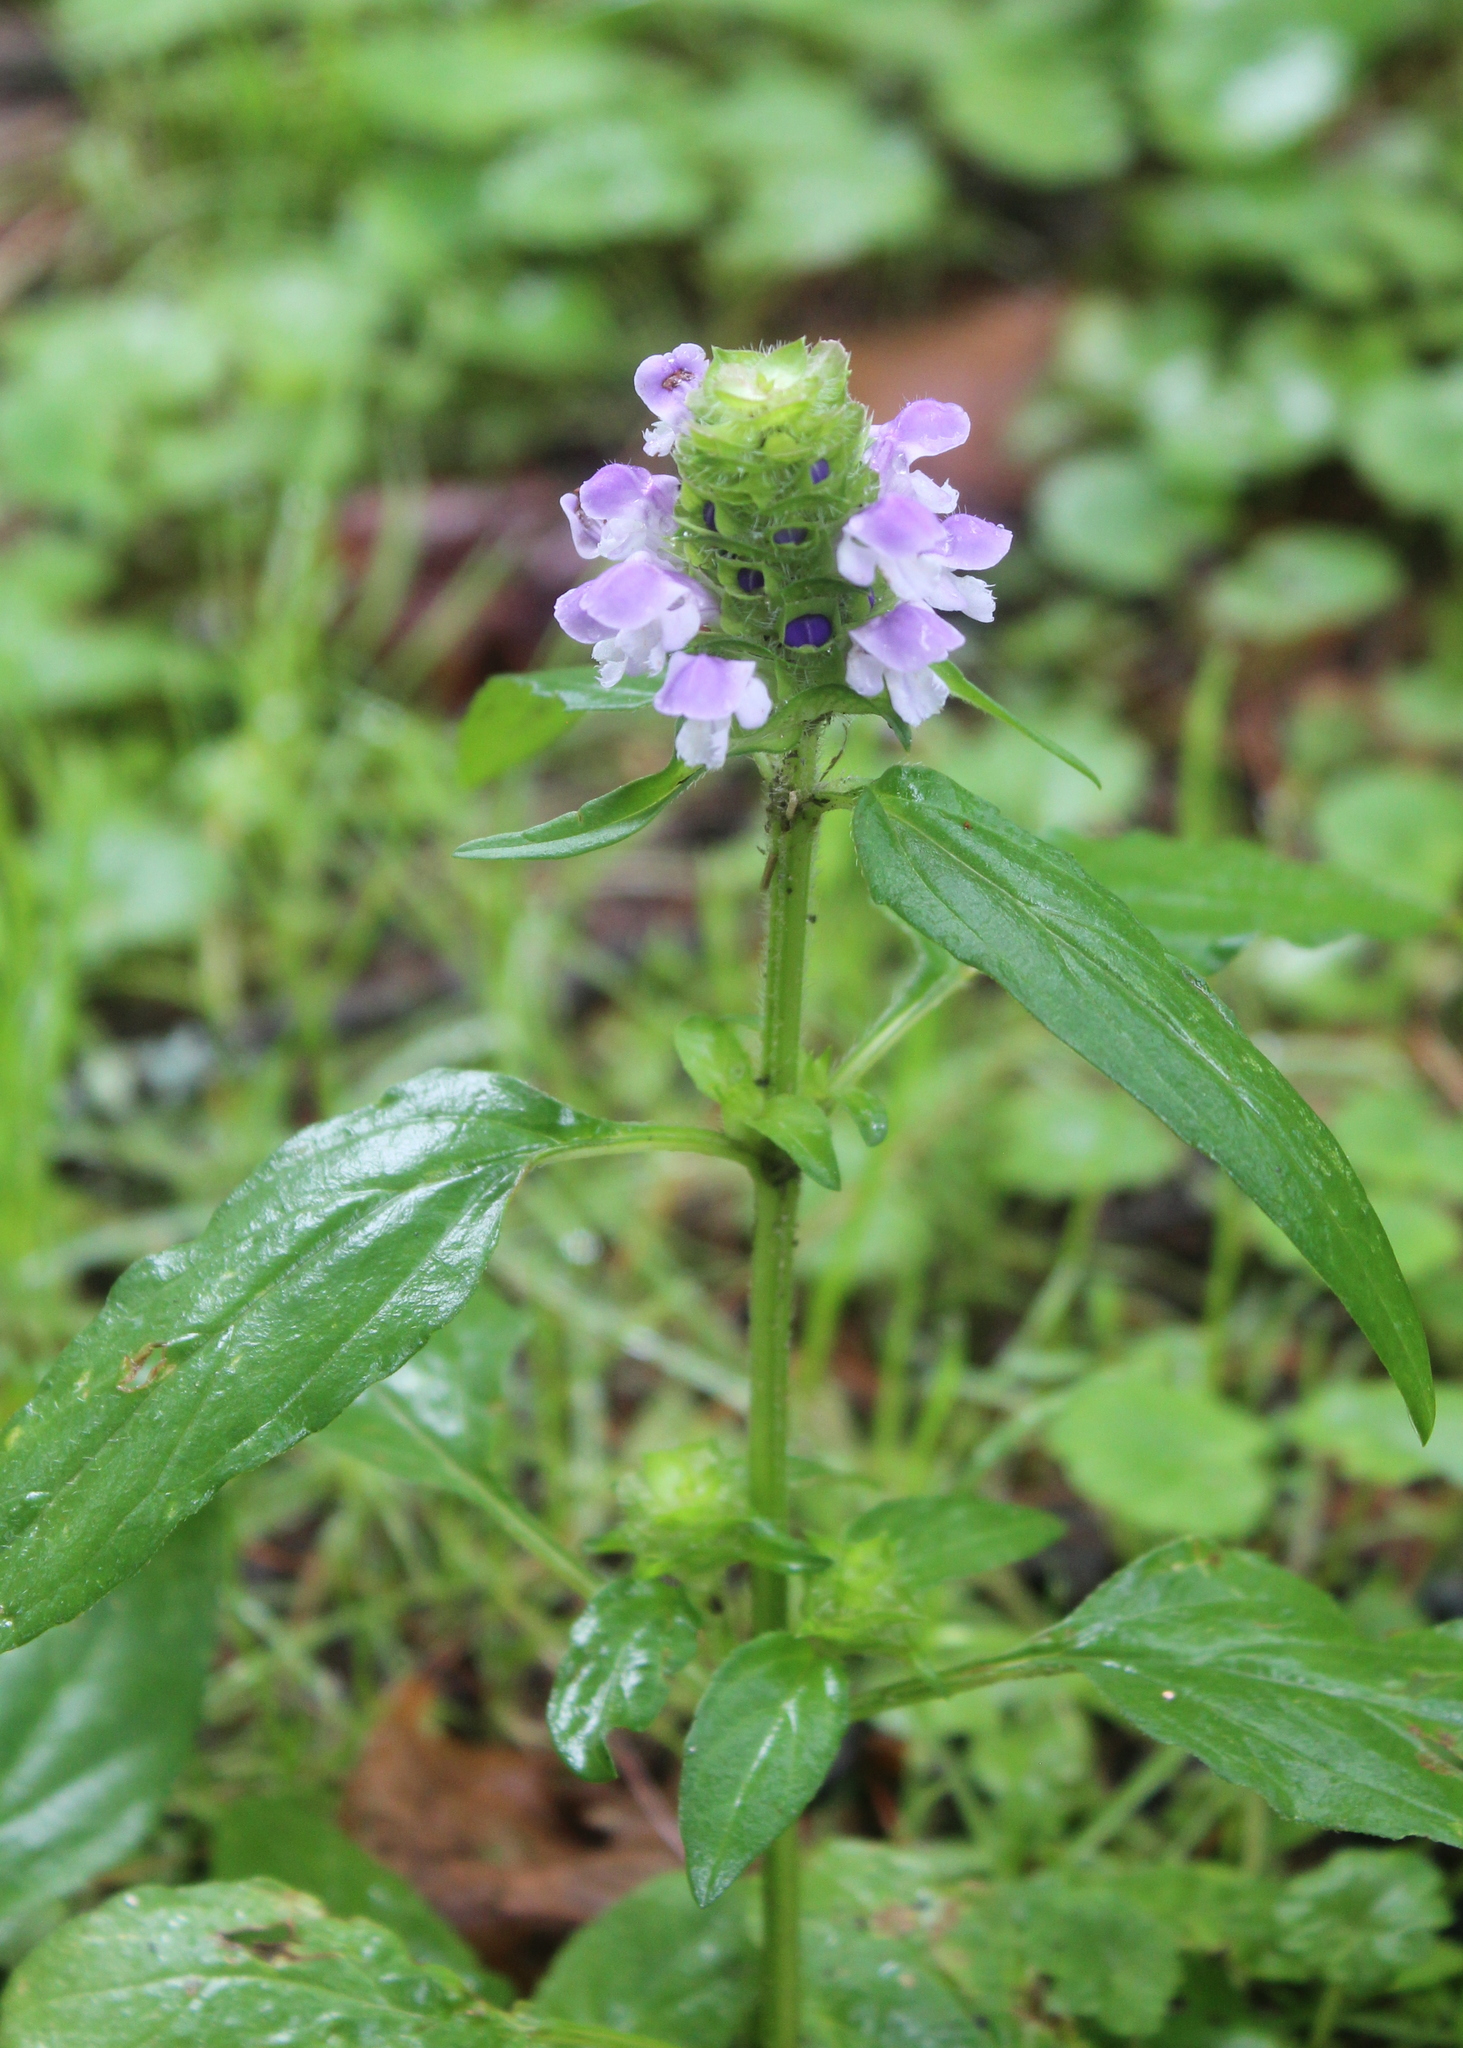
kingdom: Plantae
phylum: Tracheophyta
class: Magnoliopsida
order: Lamiales
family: Lamiaceae
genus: Prunella
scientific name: Prunella vulgaris
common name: Heal-all
